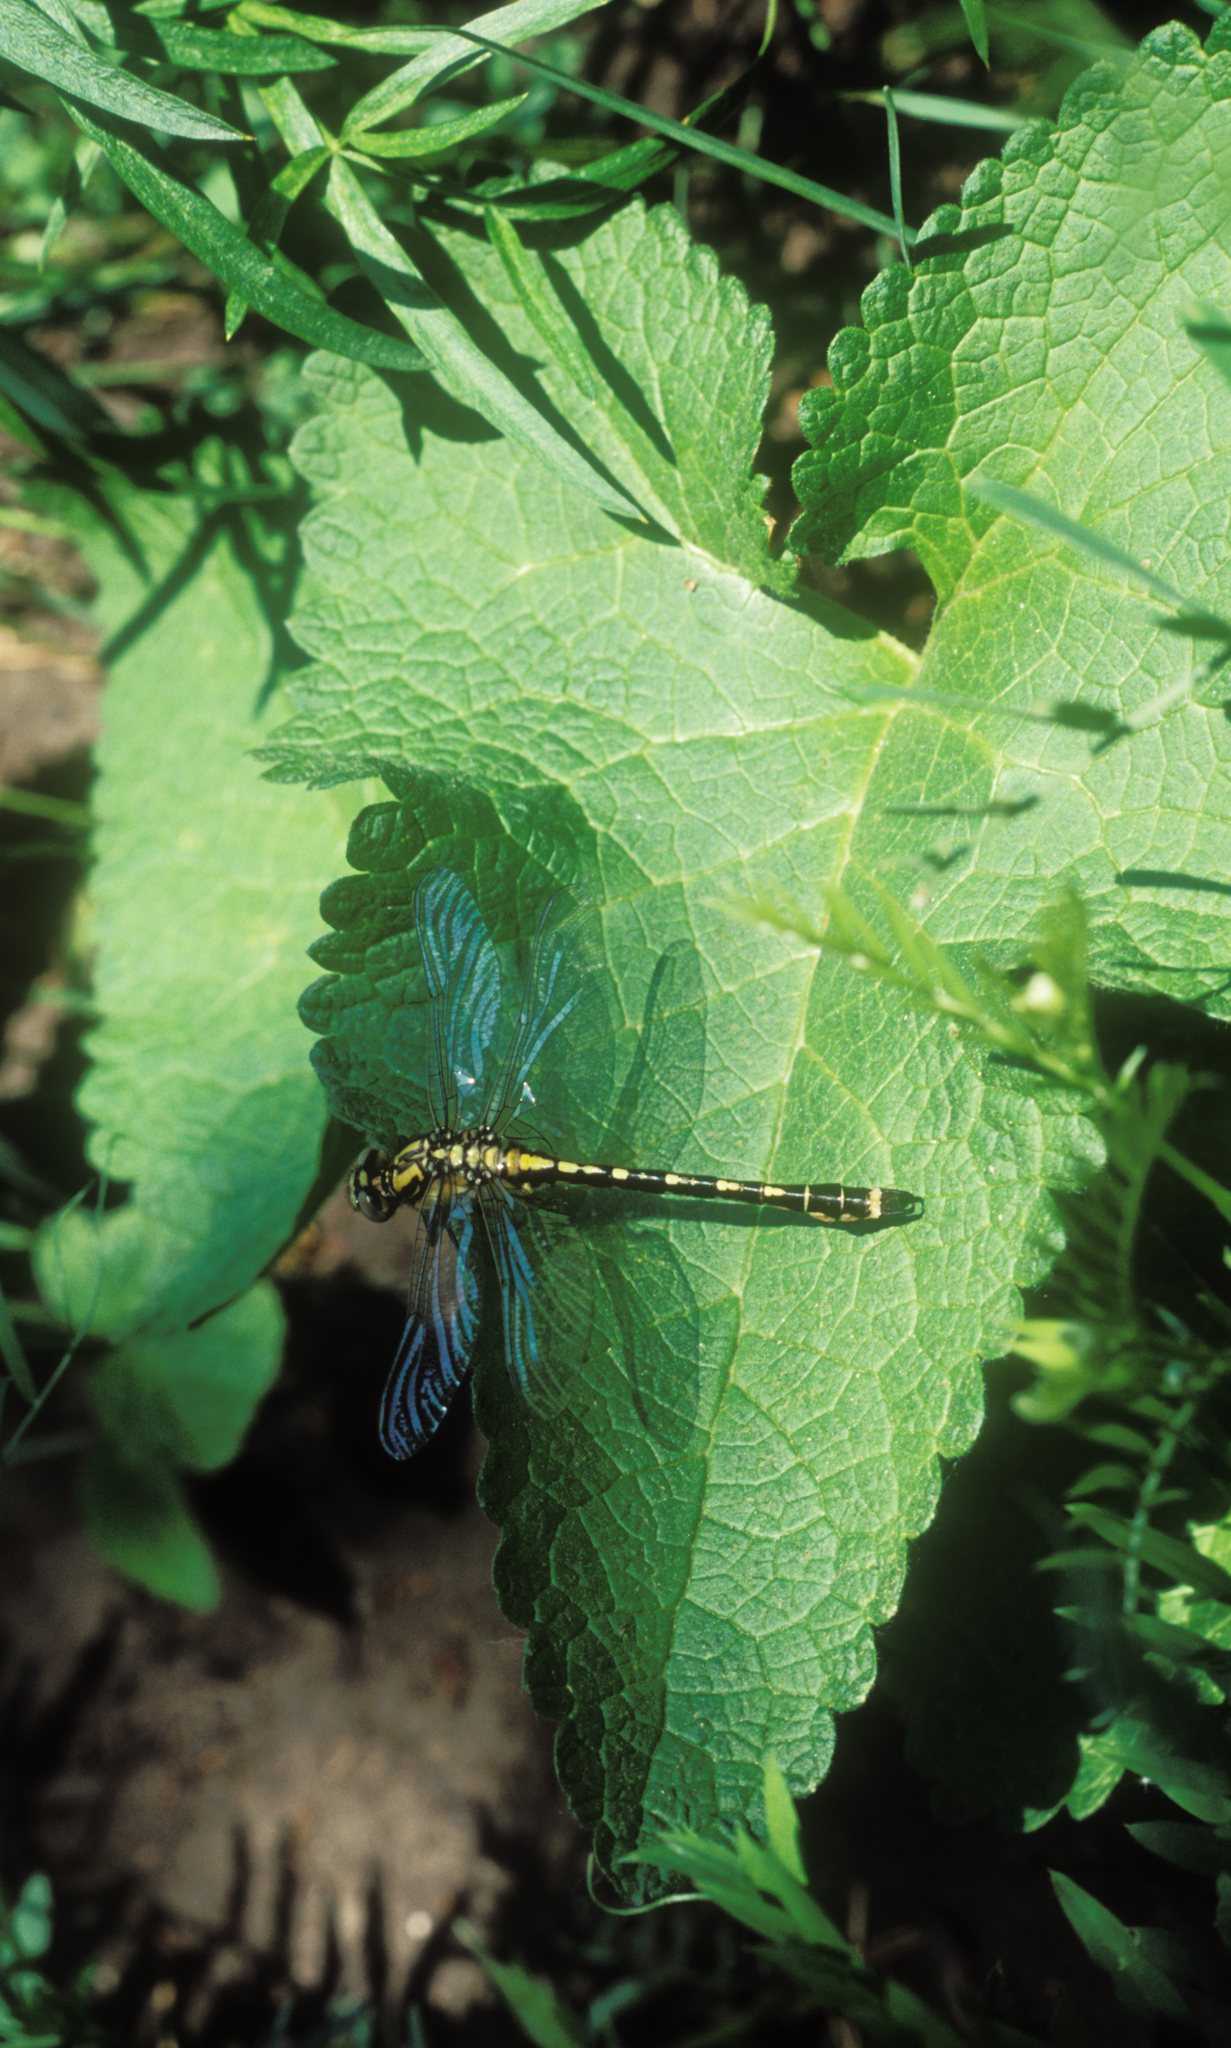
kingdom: Animalia
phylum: Arthropoda
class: Insecta
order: Odonata
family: Gomphidae
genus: Nihonogomphus
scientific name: Nihonogomphus ruptus
